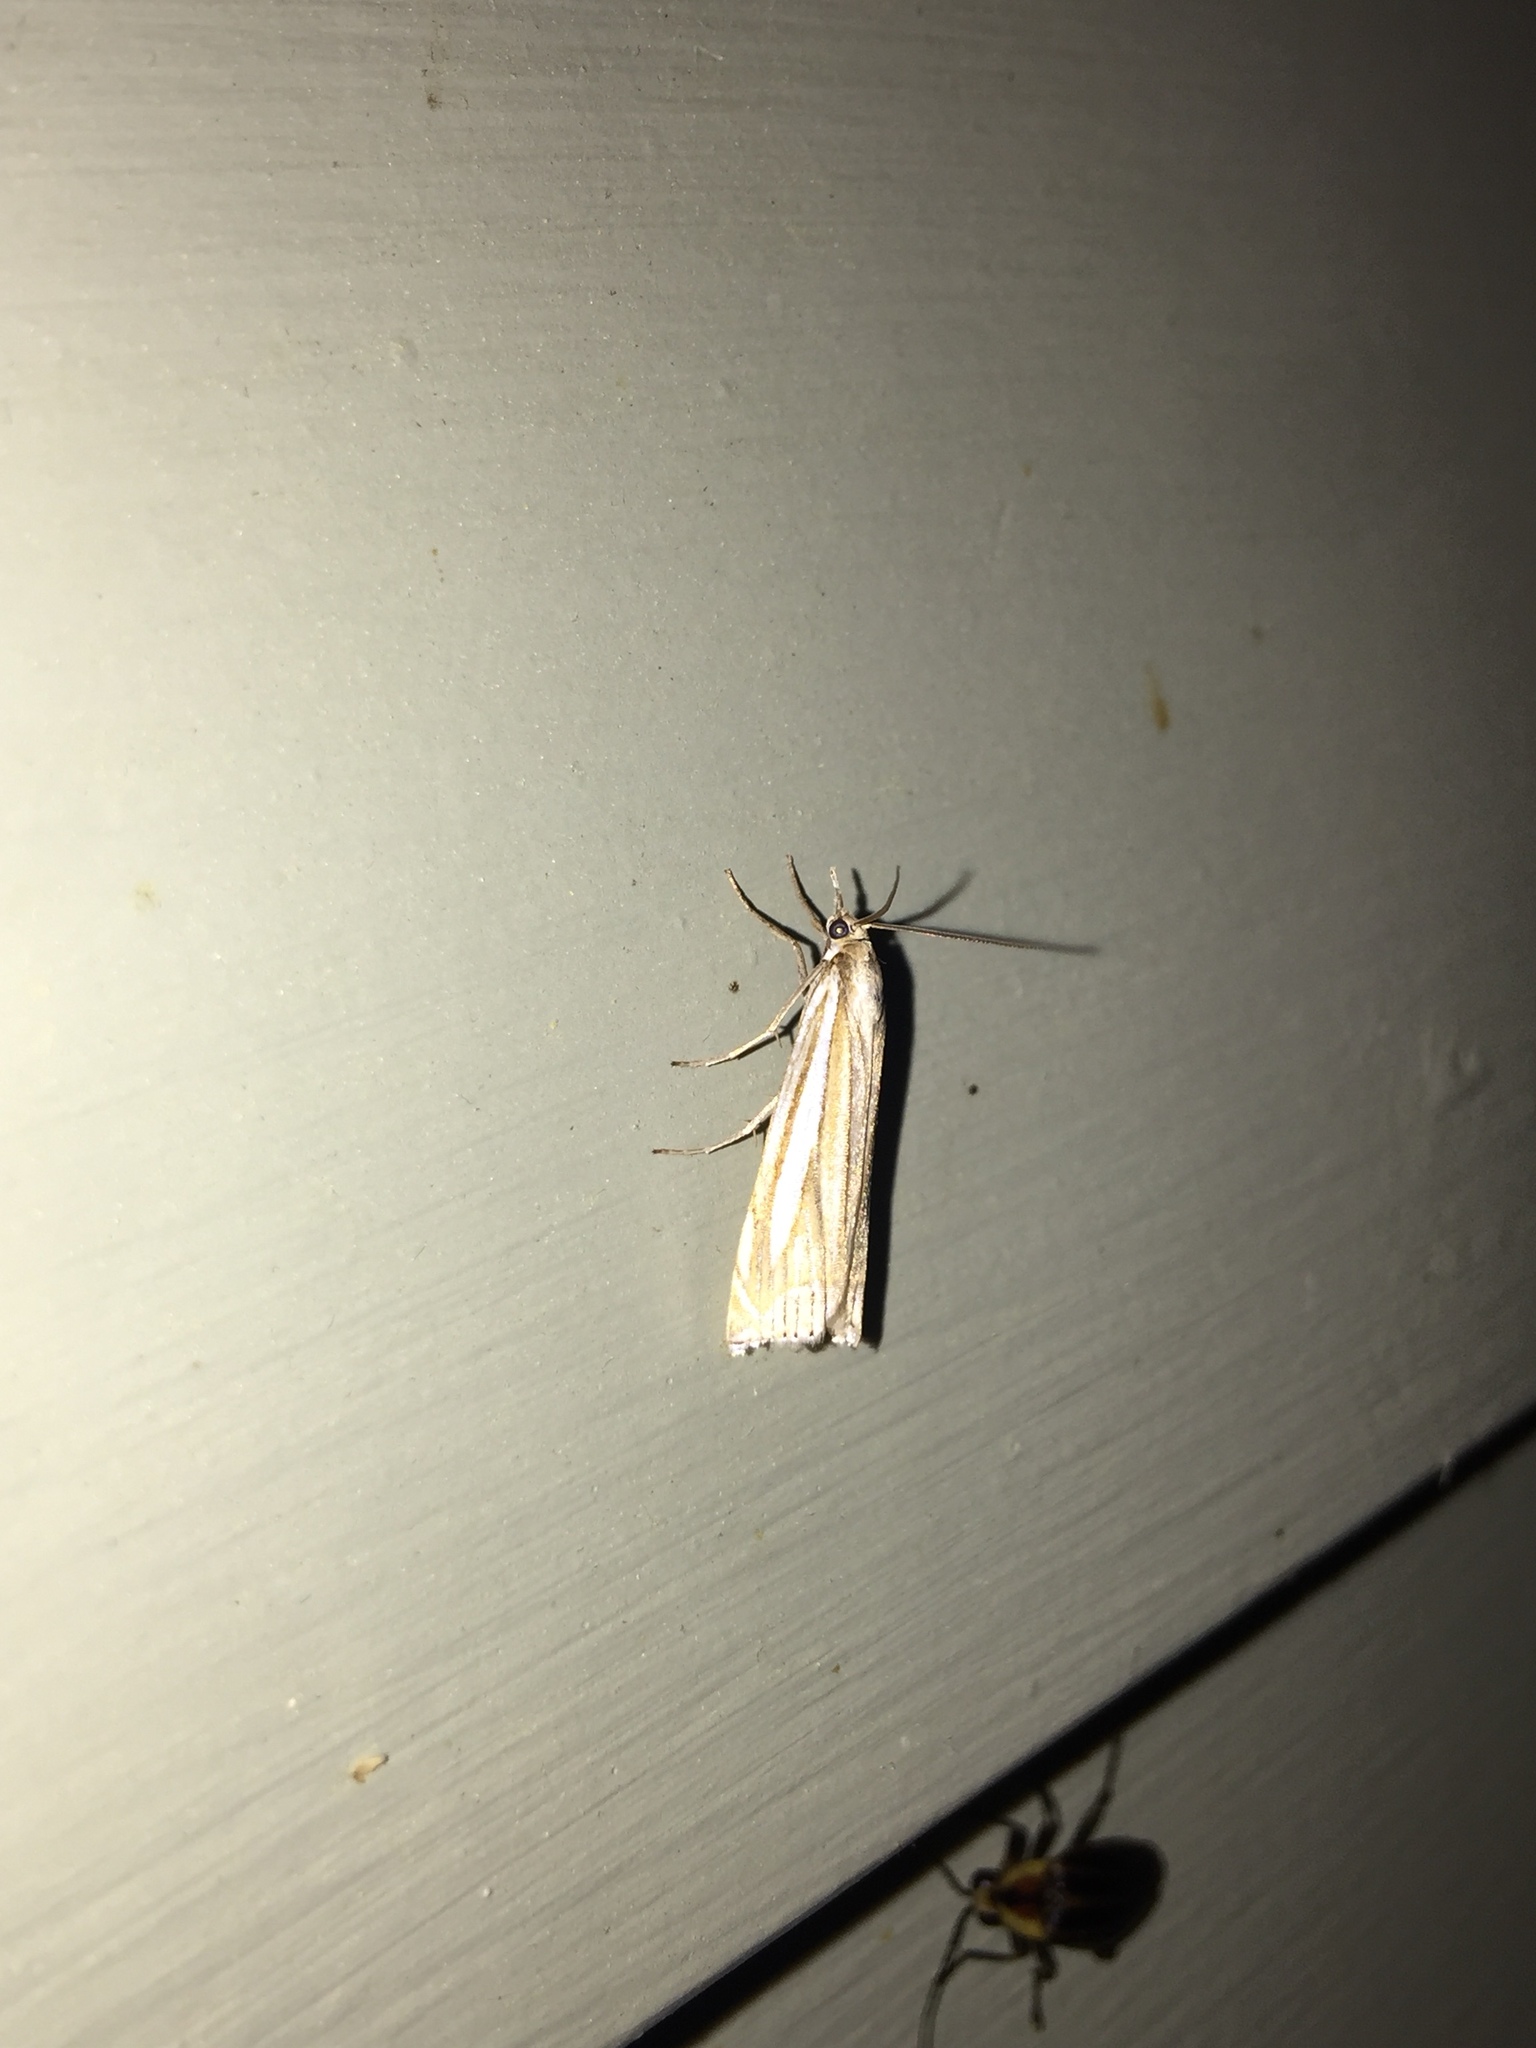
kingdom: Animalia
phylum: Arthropoda
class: Insecta
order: Lepidoptera
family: Crambidae
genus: Crambus
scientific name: Crambus laqueatellus
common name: Eastern grass-veneer
